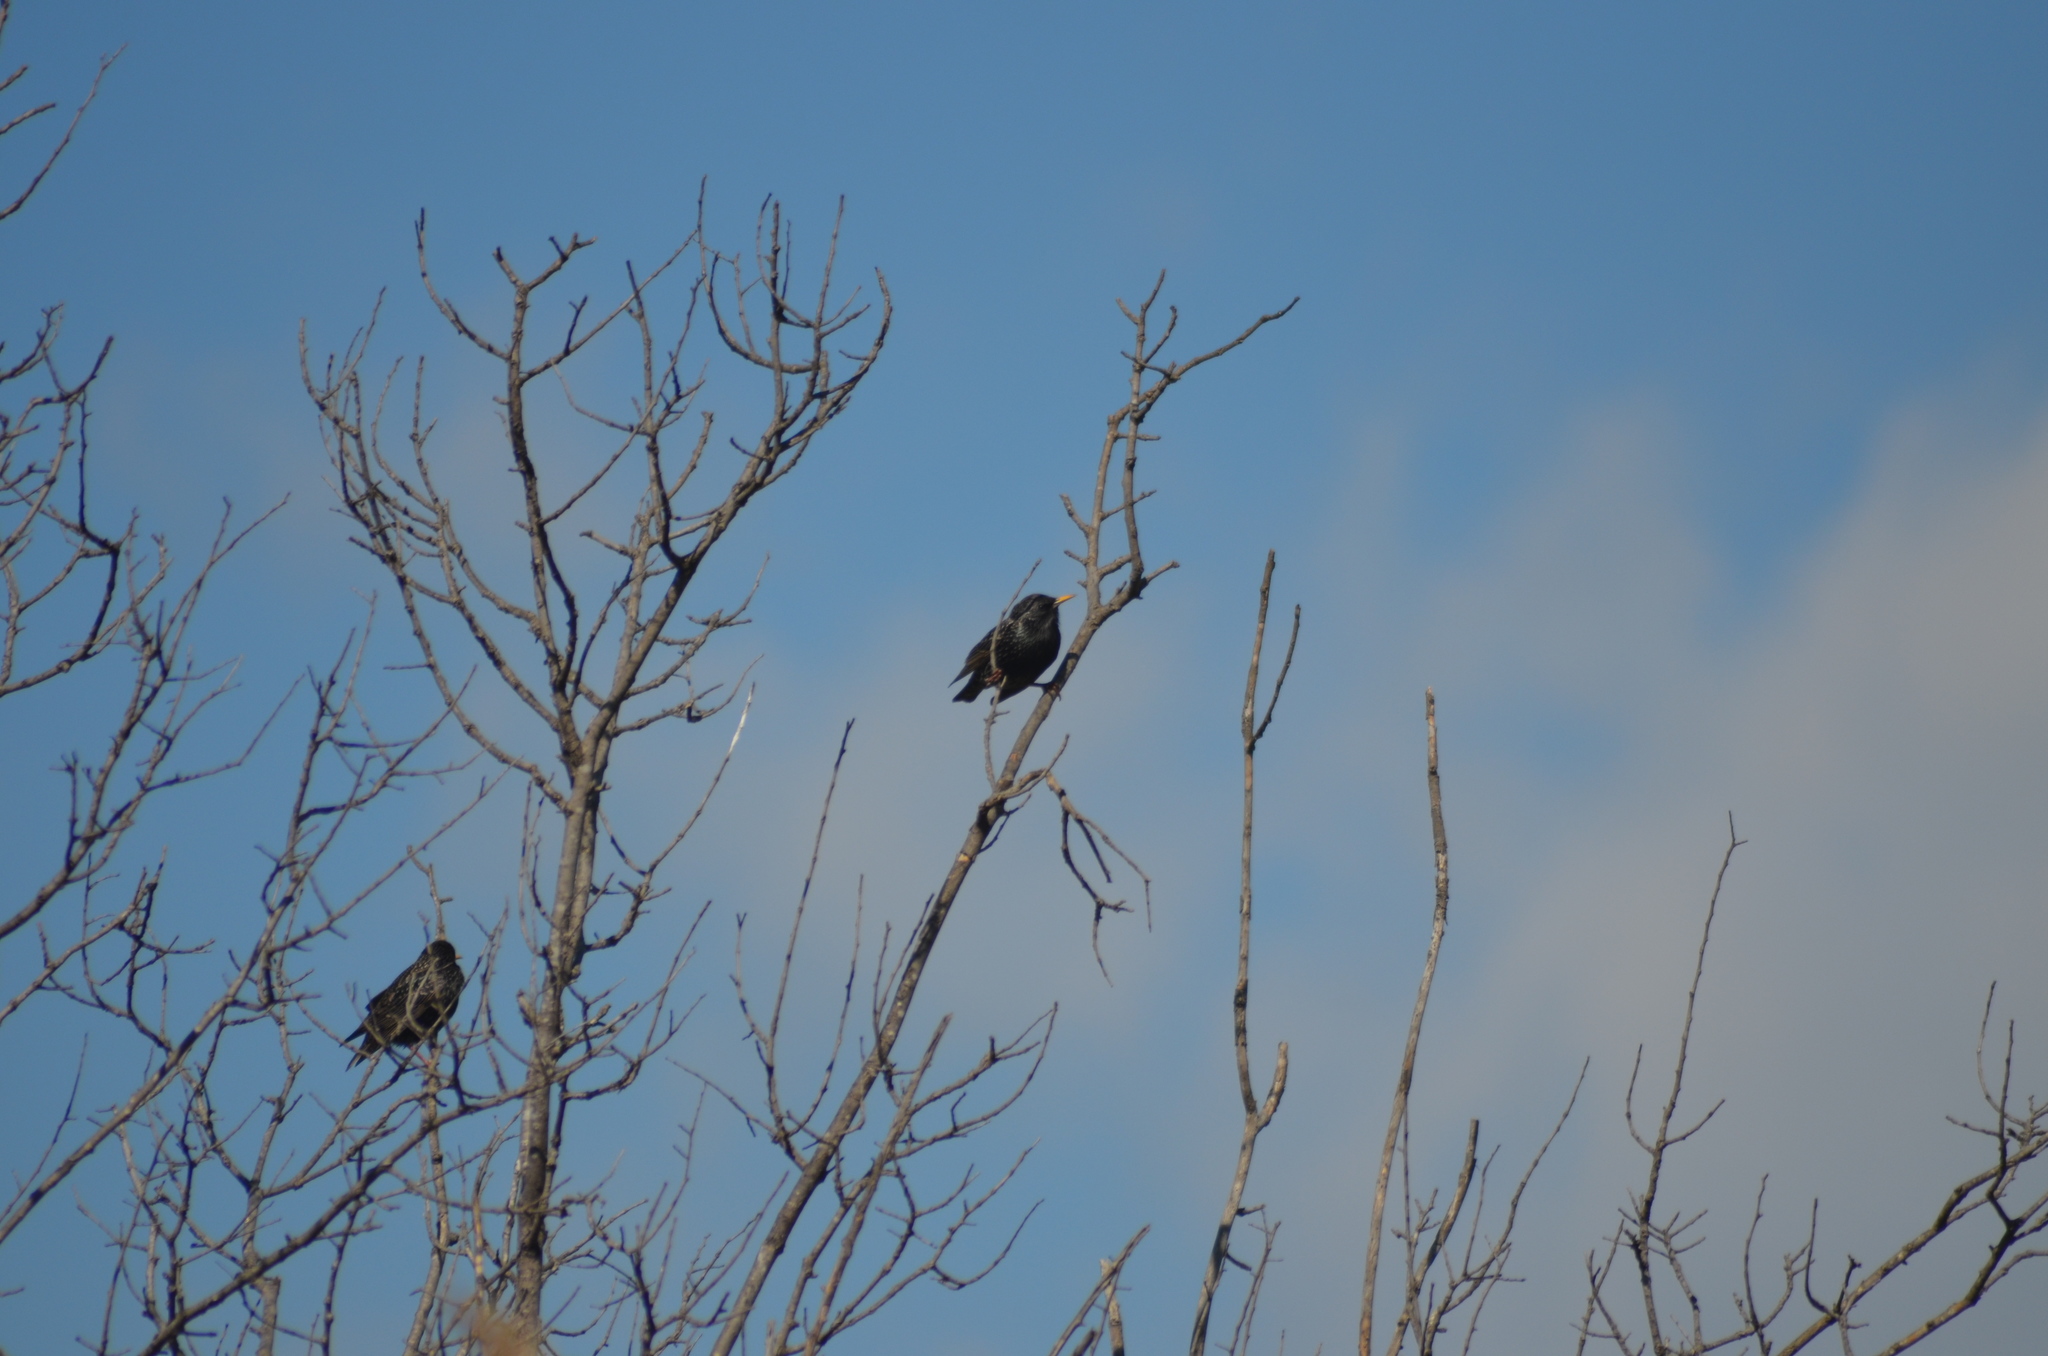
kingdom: Animalia
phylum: Chordata
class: Aves
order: Passeriformes
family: Sturnidae
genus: Sturnus
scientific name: Sturnus vulgaris
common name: Common starling
